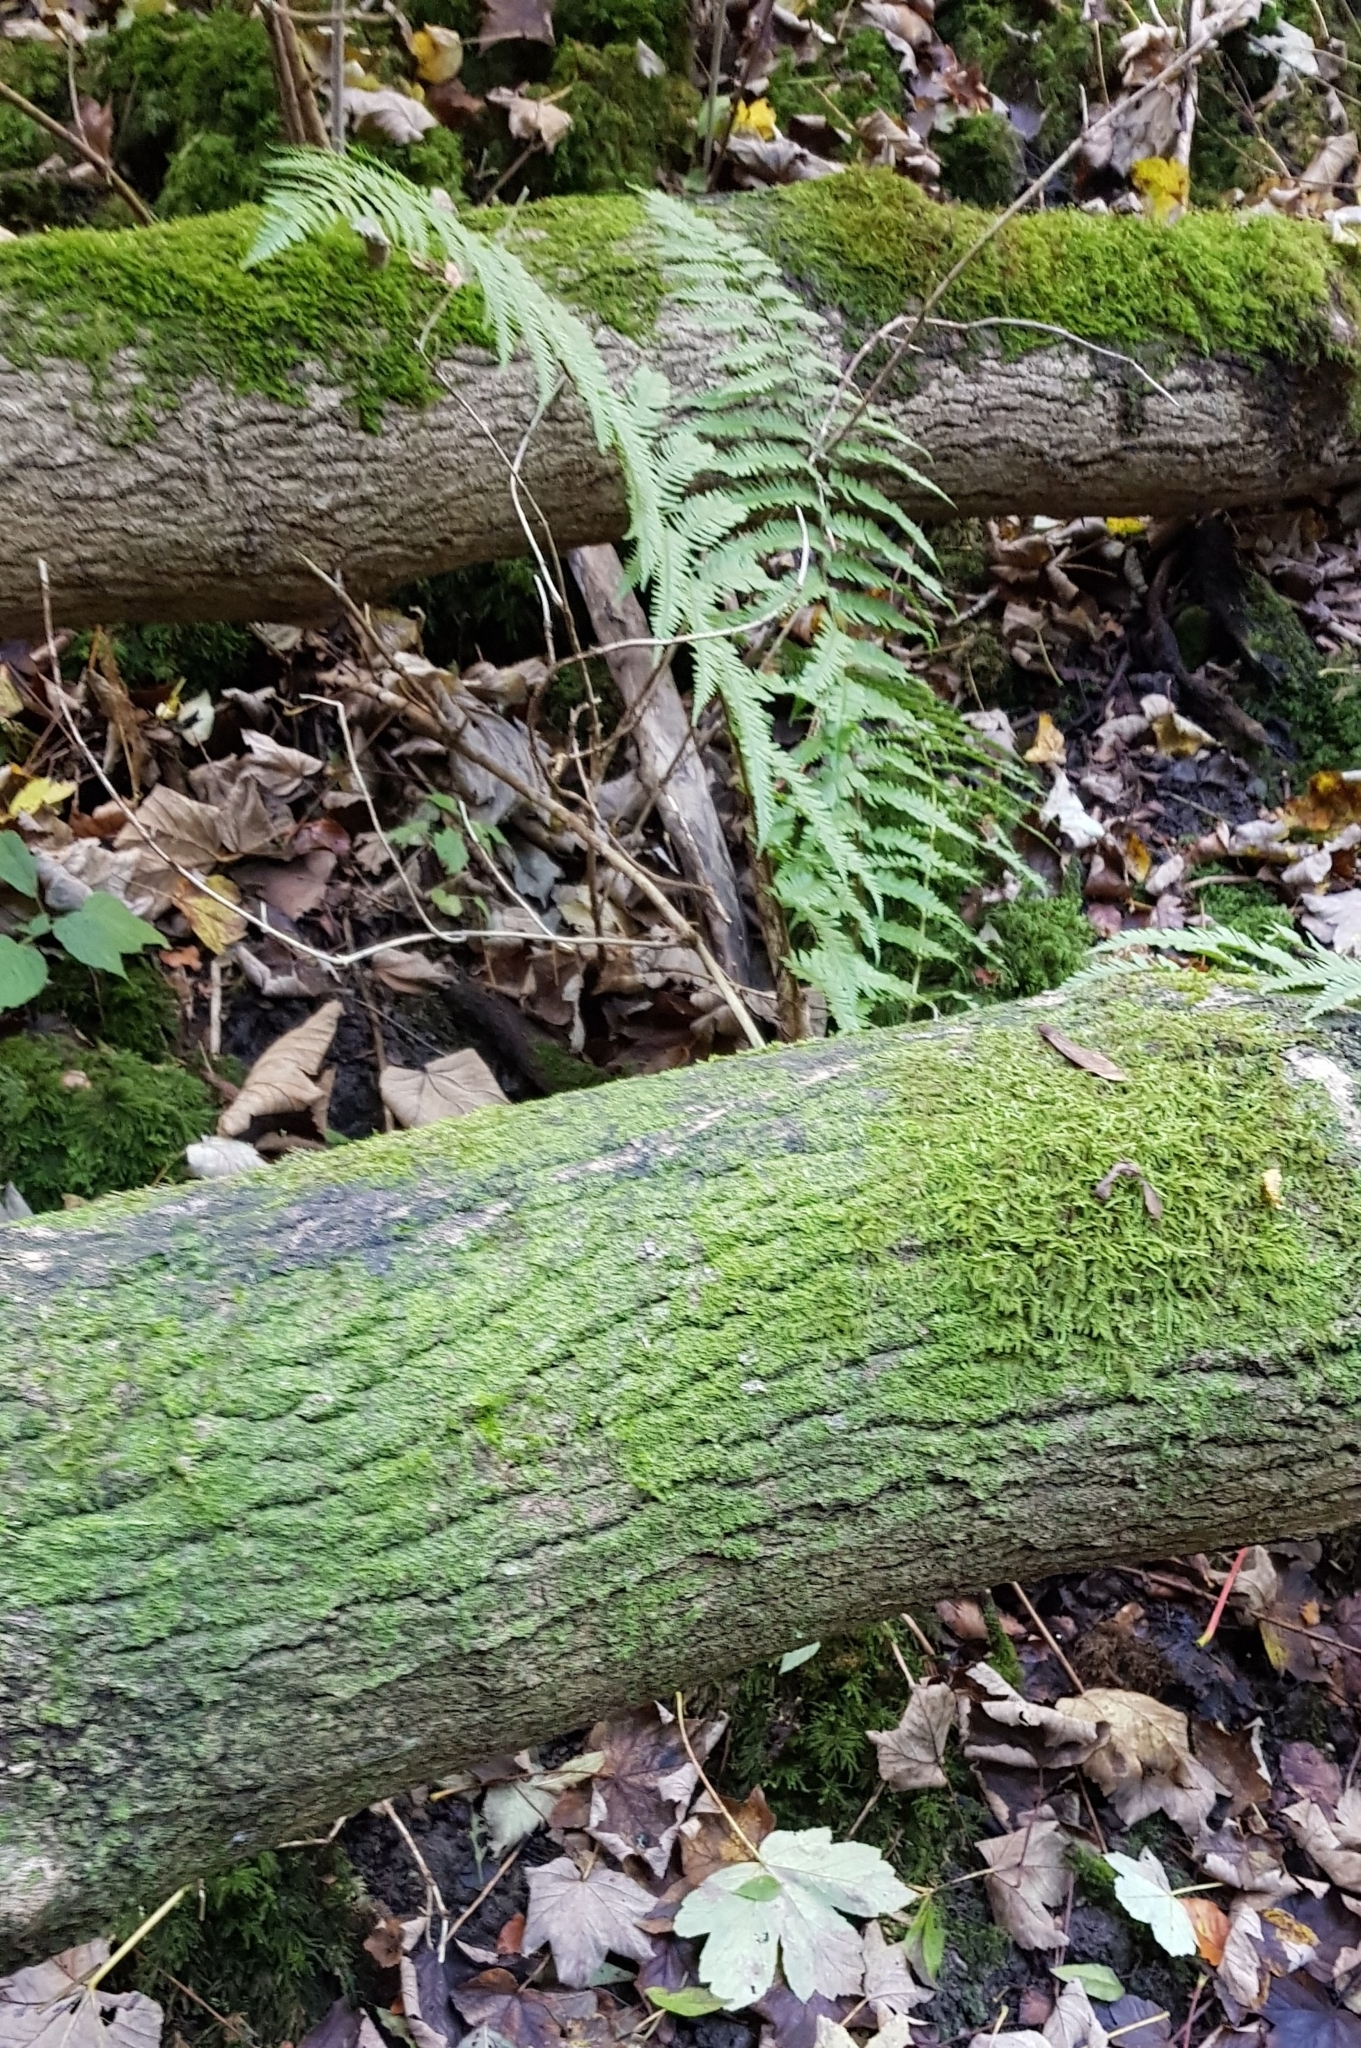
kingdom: Plantae
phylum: Marchantiophyta
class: Jungermanniopsida
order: Metzgeriales
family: Metzgeriaceae
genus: Metzgeria
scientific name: Metzgeria violacea
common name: Blueish veilwort
